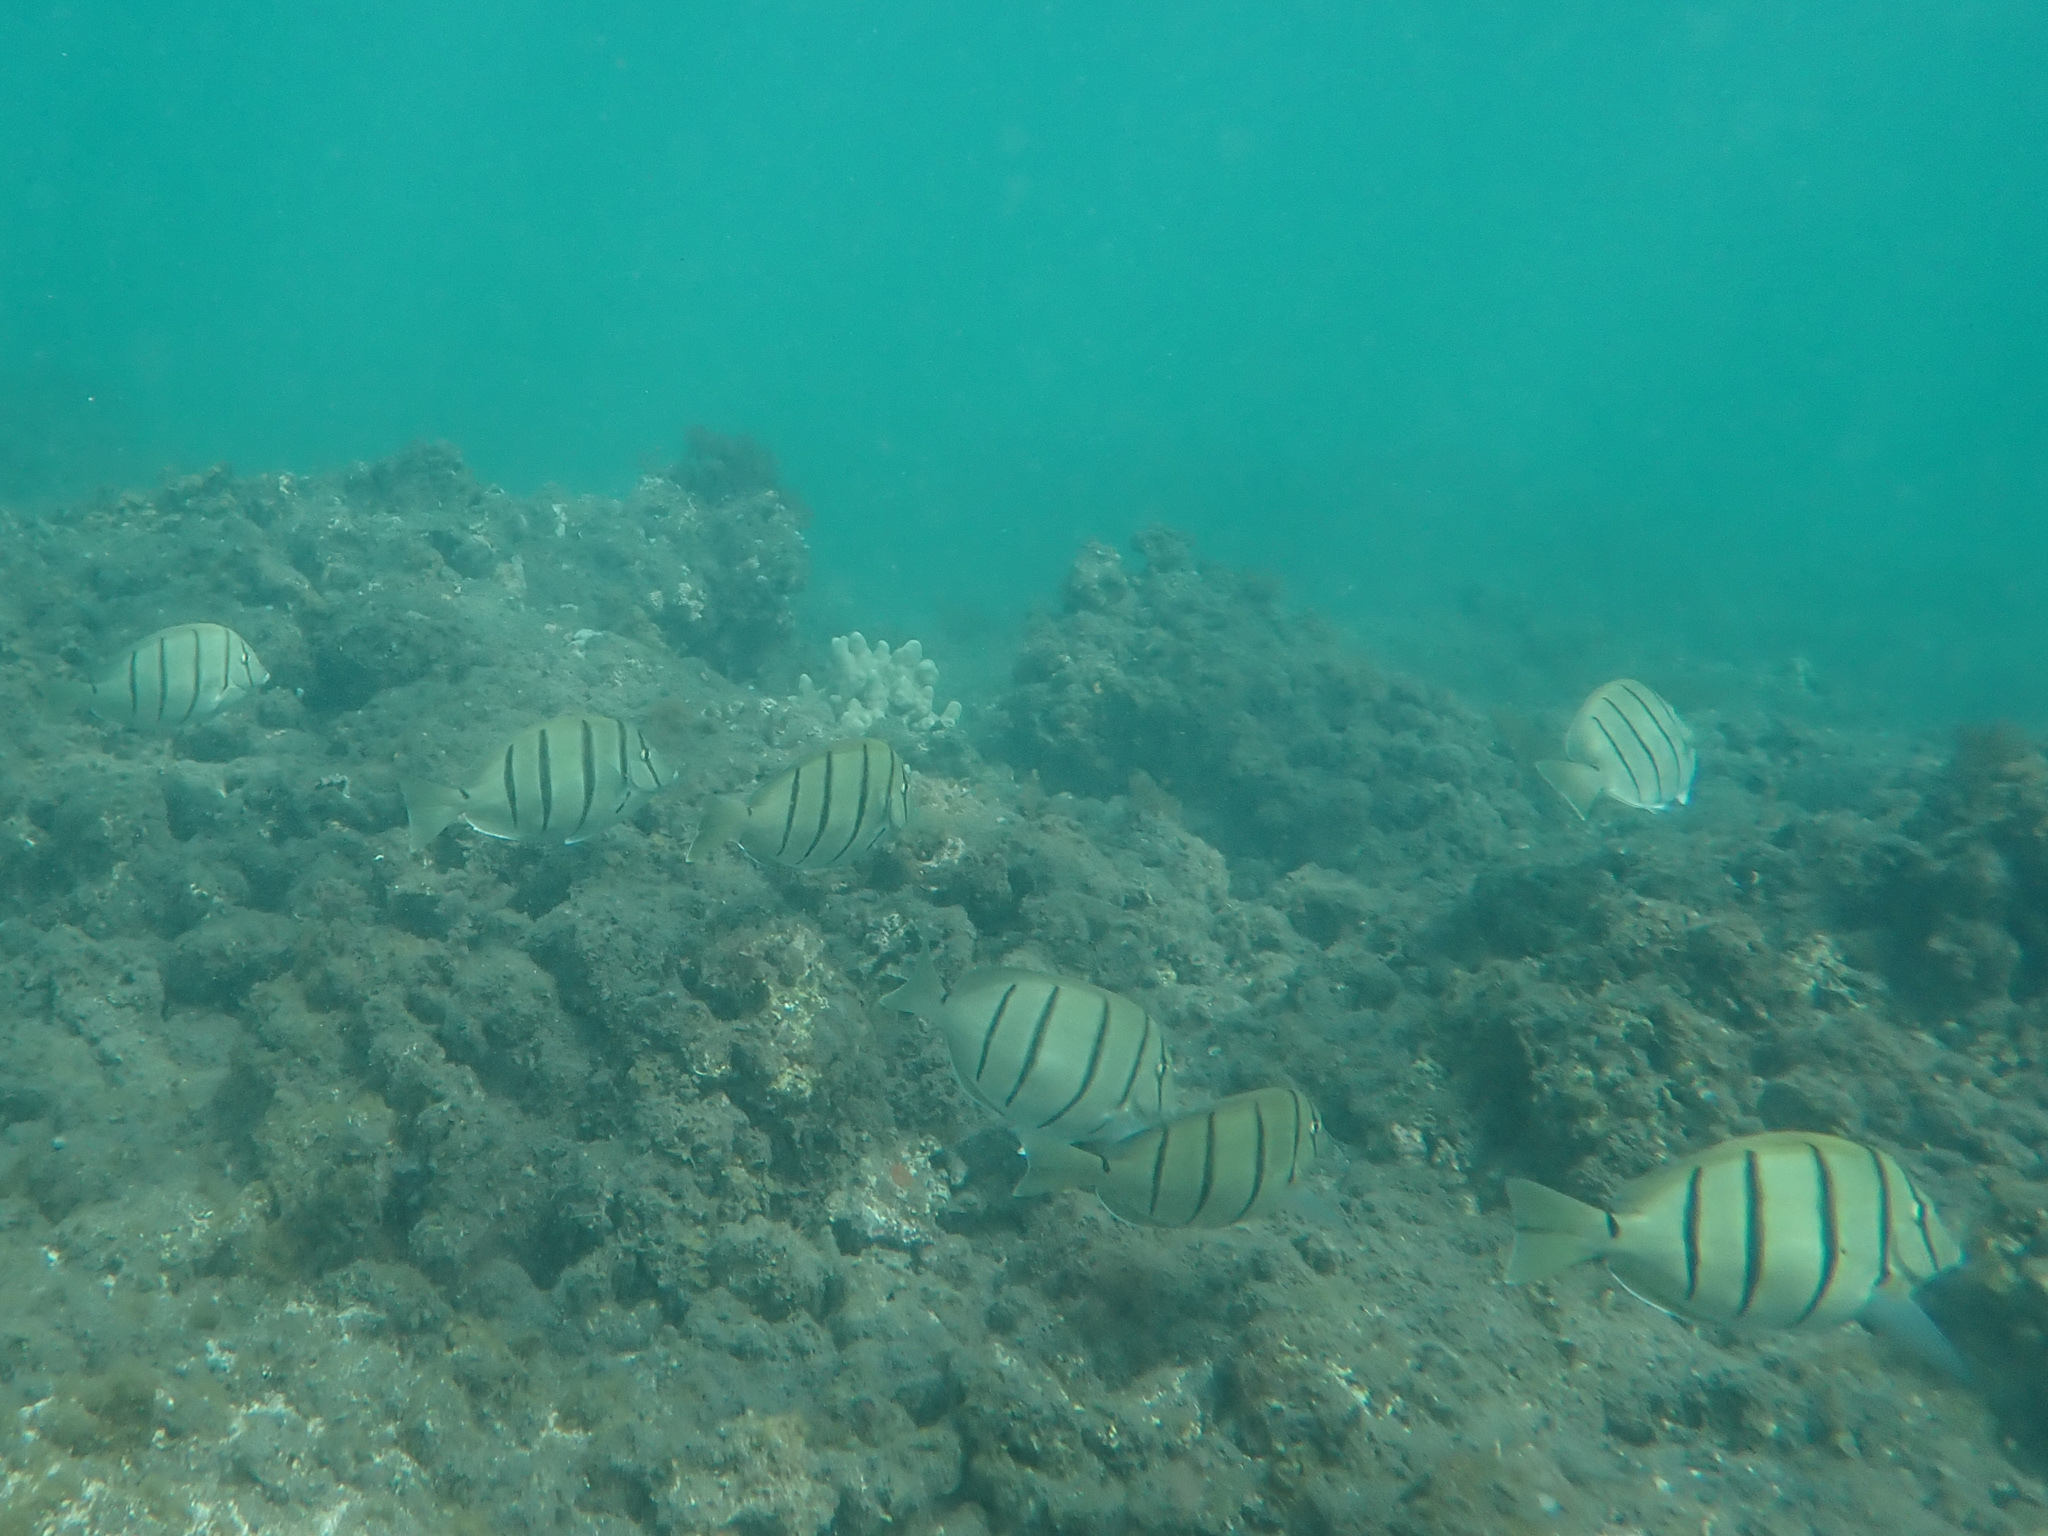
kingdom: Animalia
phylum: Chordata
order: Perciformes
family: Acanthuridae
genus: Acanthurus
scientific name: Acanthurus triostegus
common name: Convict surgeonfish
